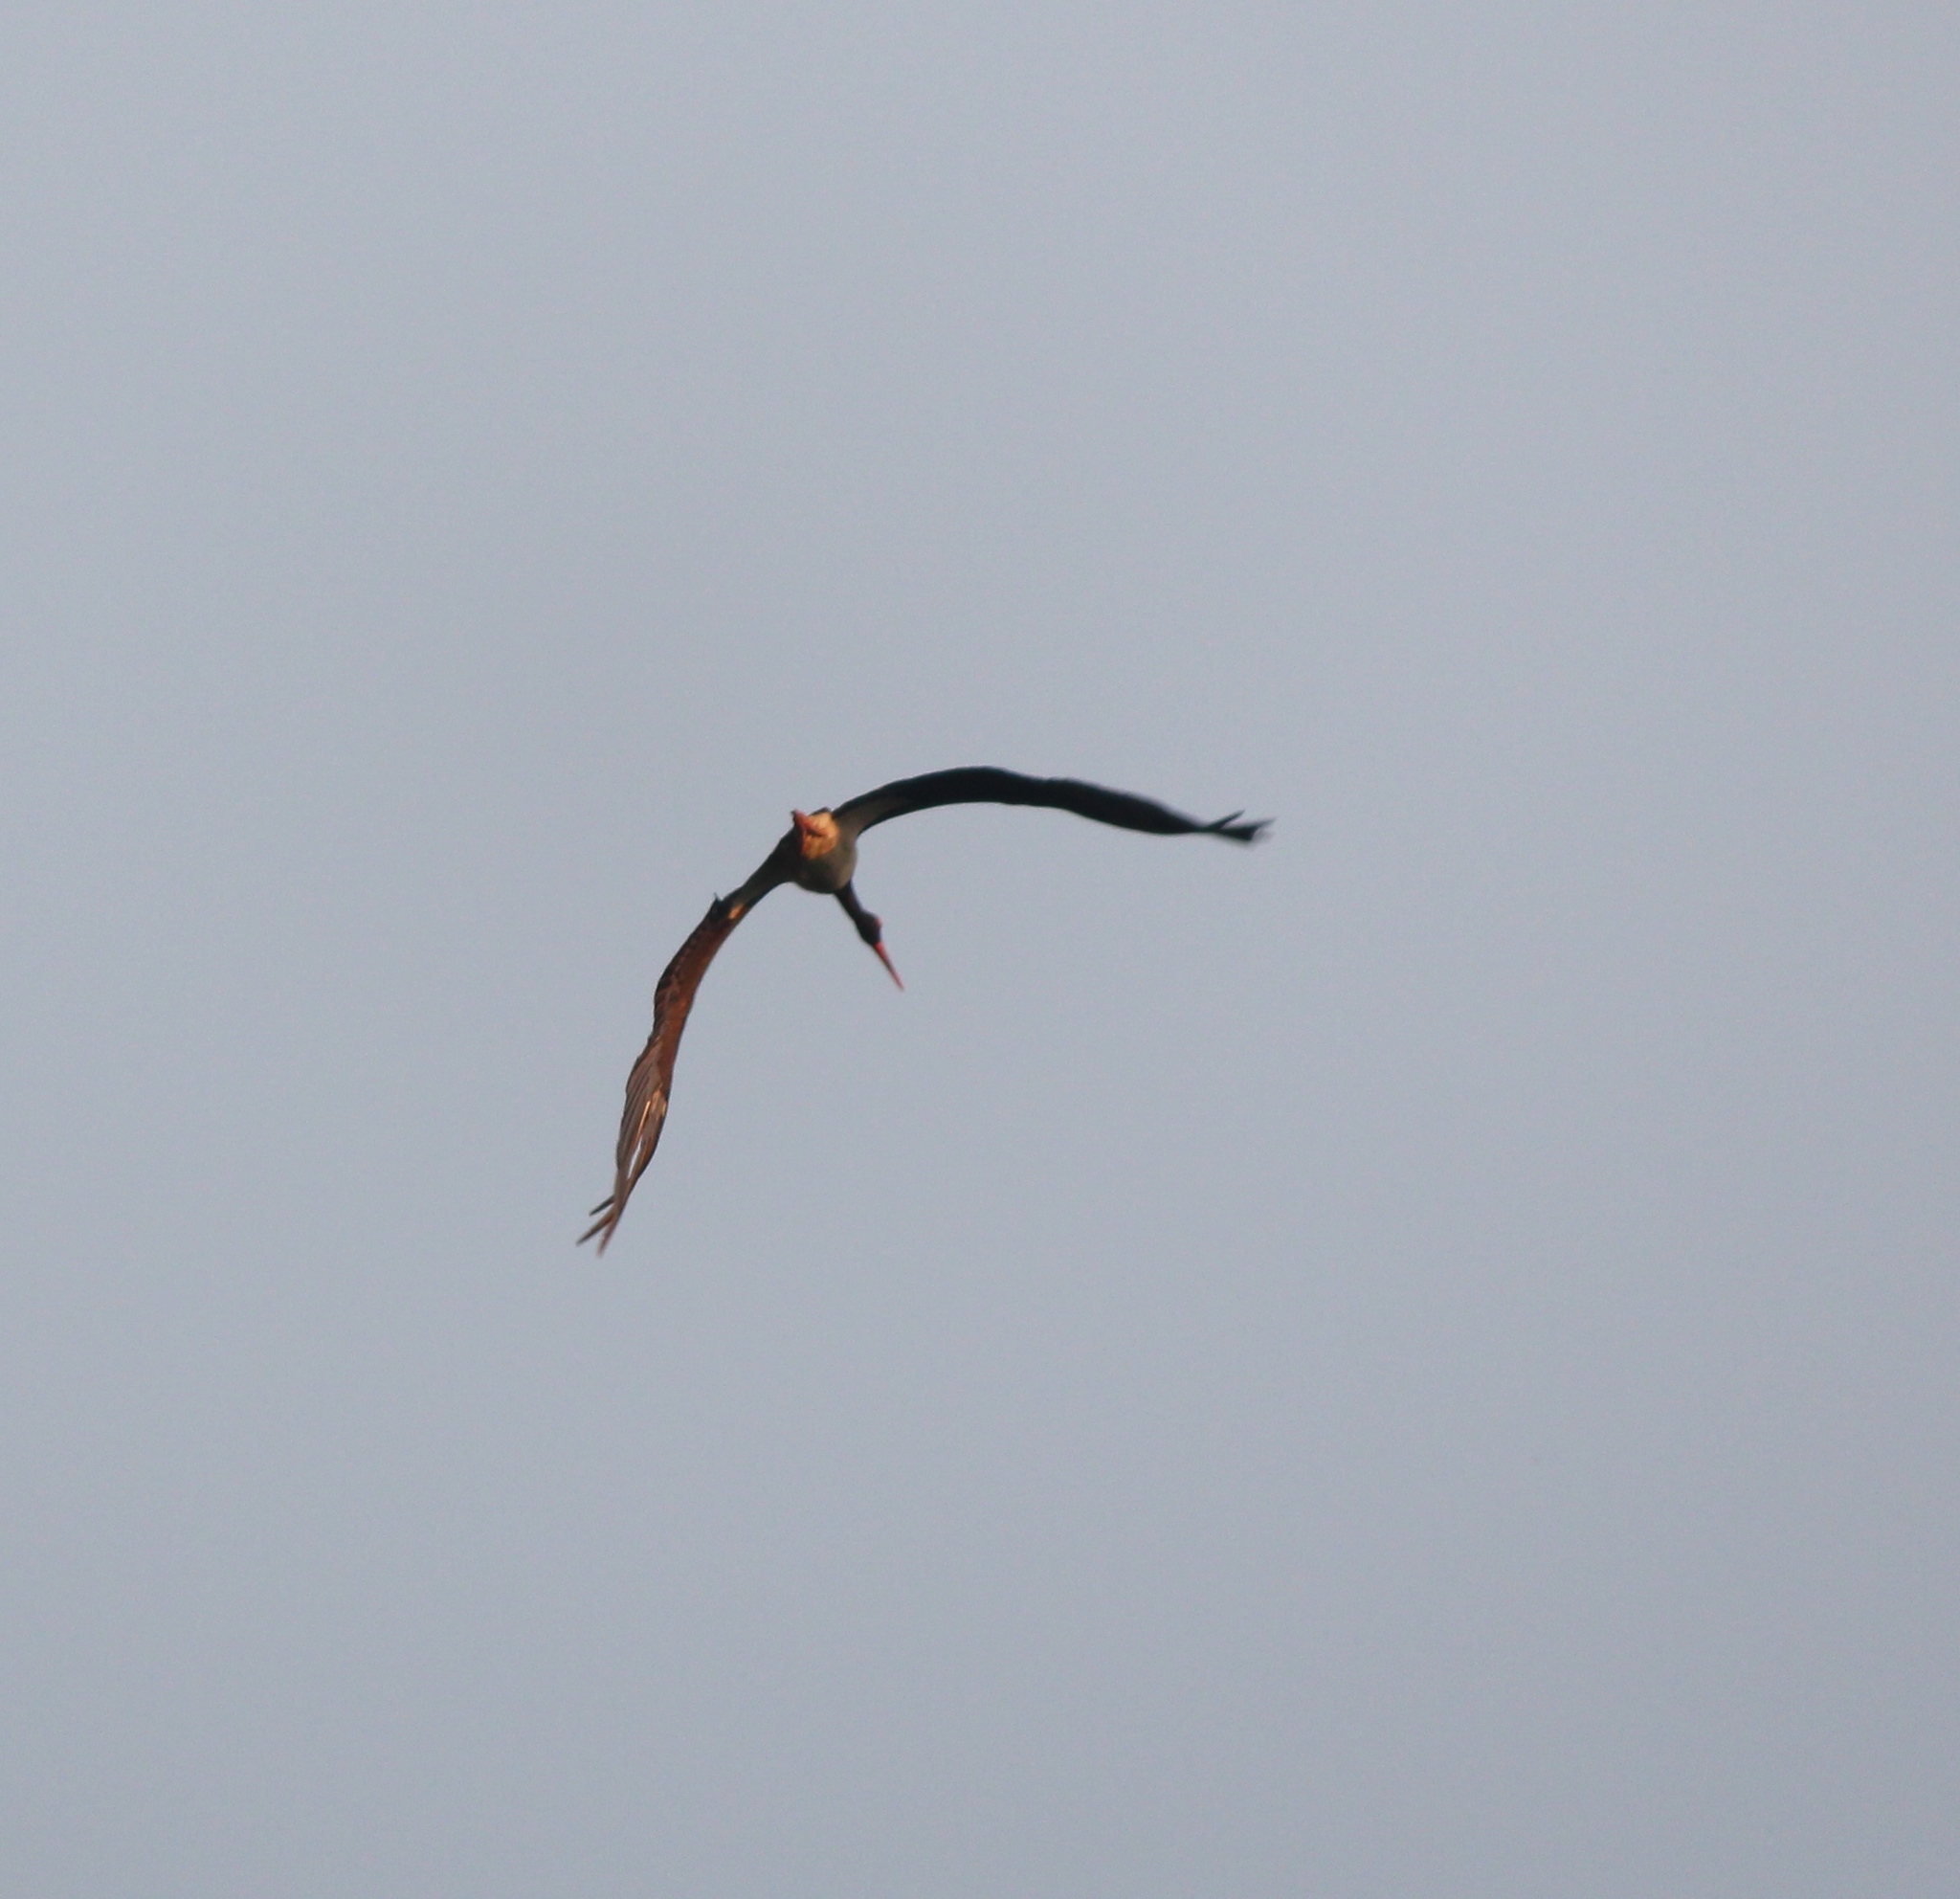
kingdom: Animalia
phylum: Chordata
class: Aves
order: Ciconiiformes
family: Ciconiidae
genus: Ciconia
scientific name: Ciconia nigra
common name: Black stork
